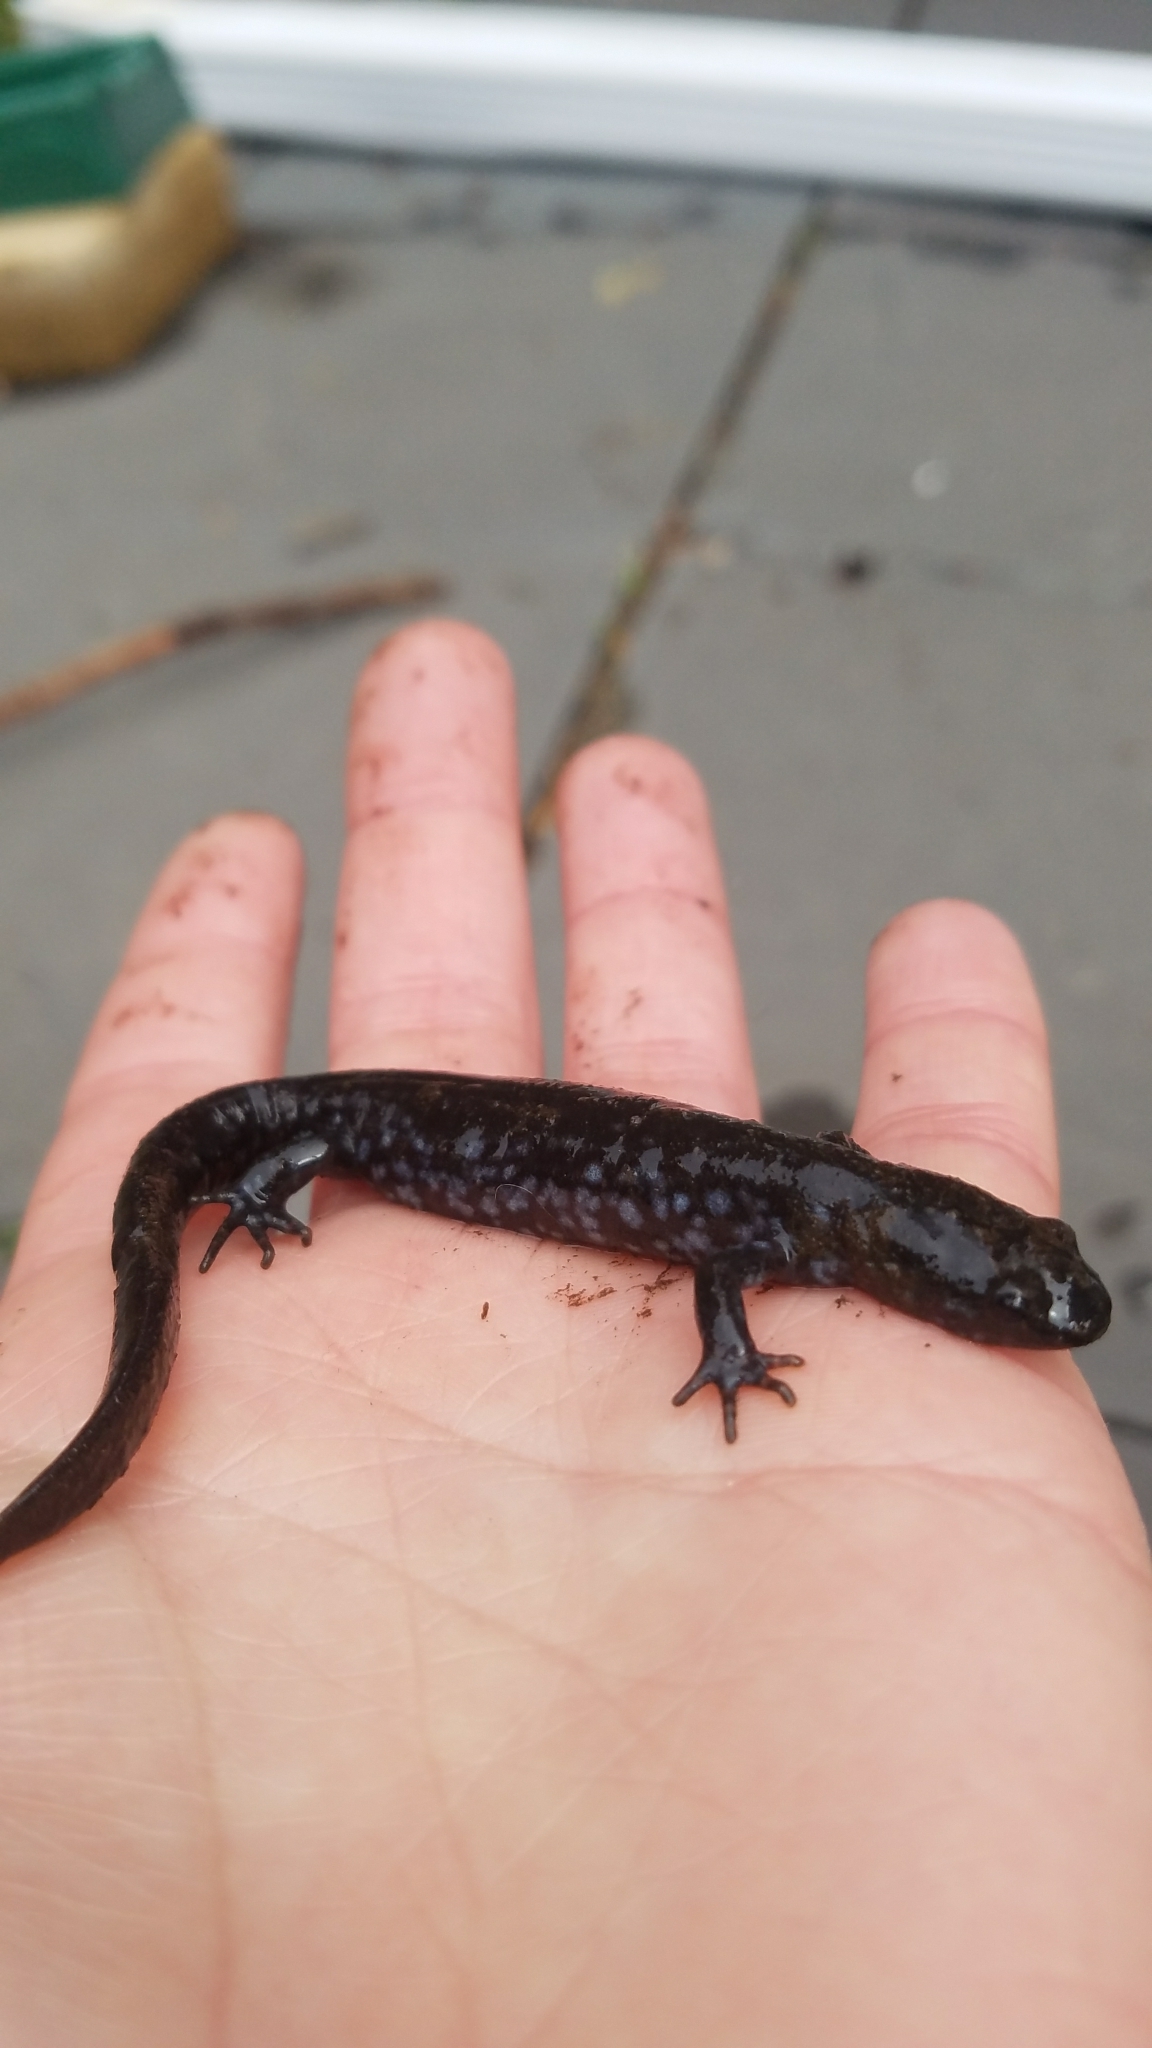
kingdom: Animalia
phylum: Chordata
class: Amphibia
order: Caudata
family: Ambystomatidae
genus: Ambystoma
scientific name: Ambystoma laterale
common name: Blue-spotted salamander
